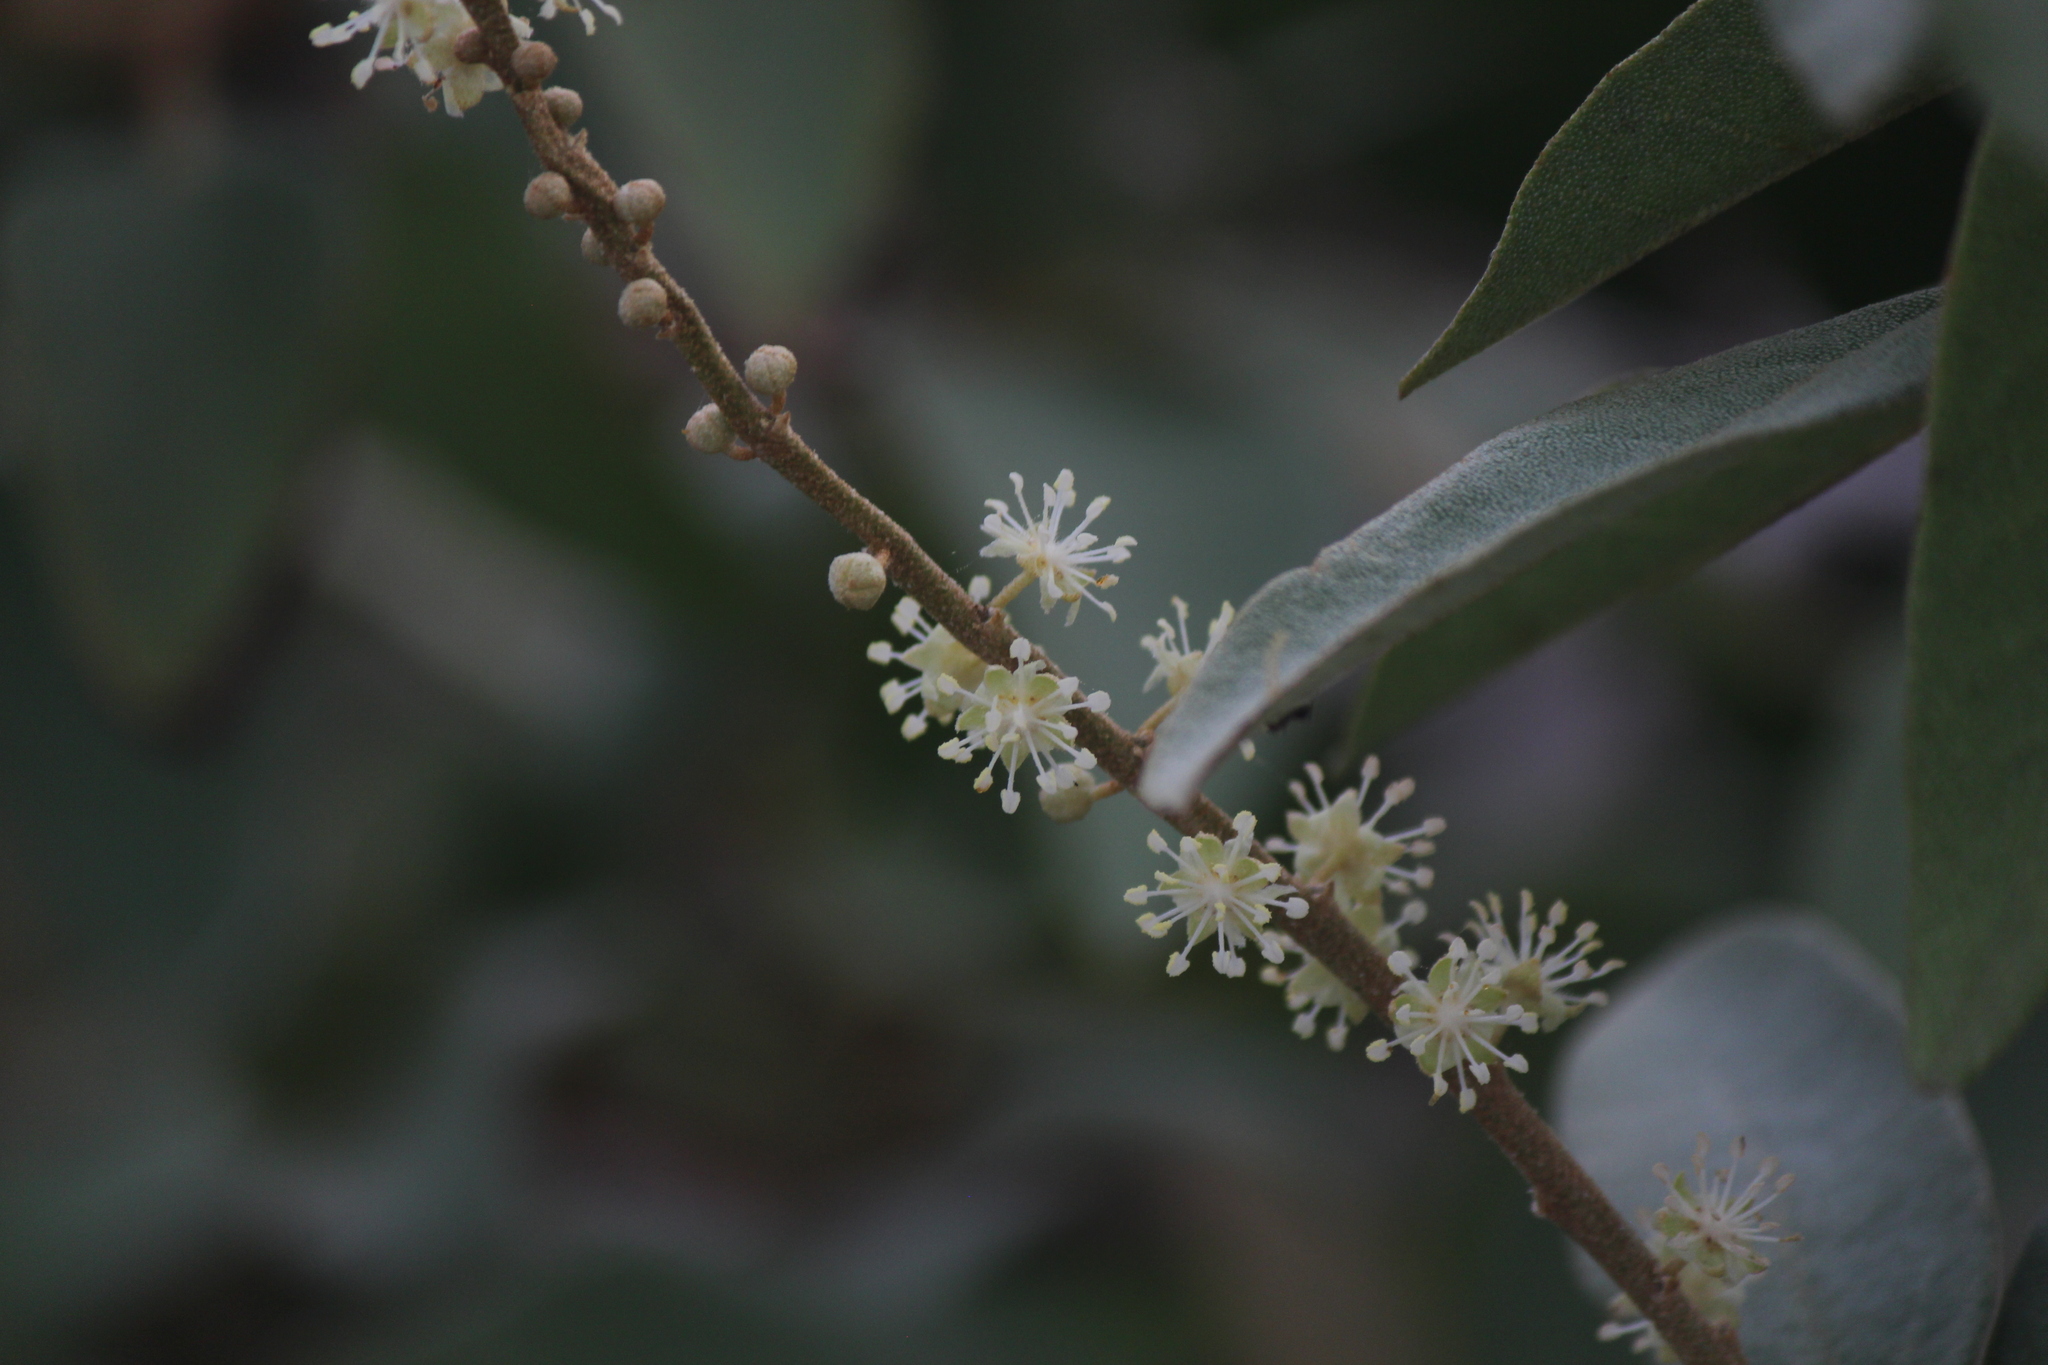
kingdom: Plantae
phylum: Tracheophyta
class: Magnoliopsida
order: Malpighiales
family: Euphorbiaceae
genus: Croton
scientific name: Croton scouleri
